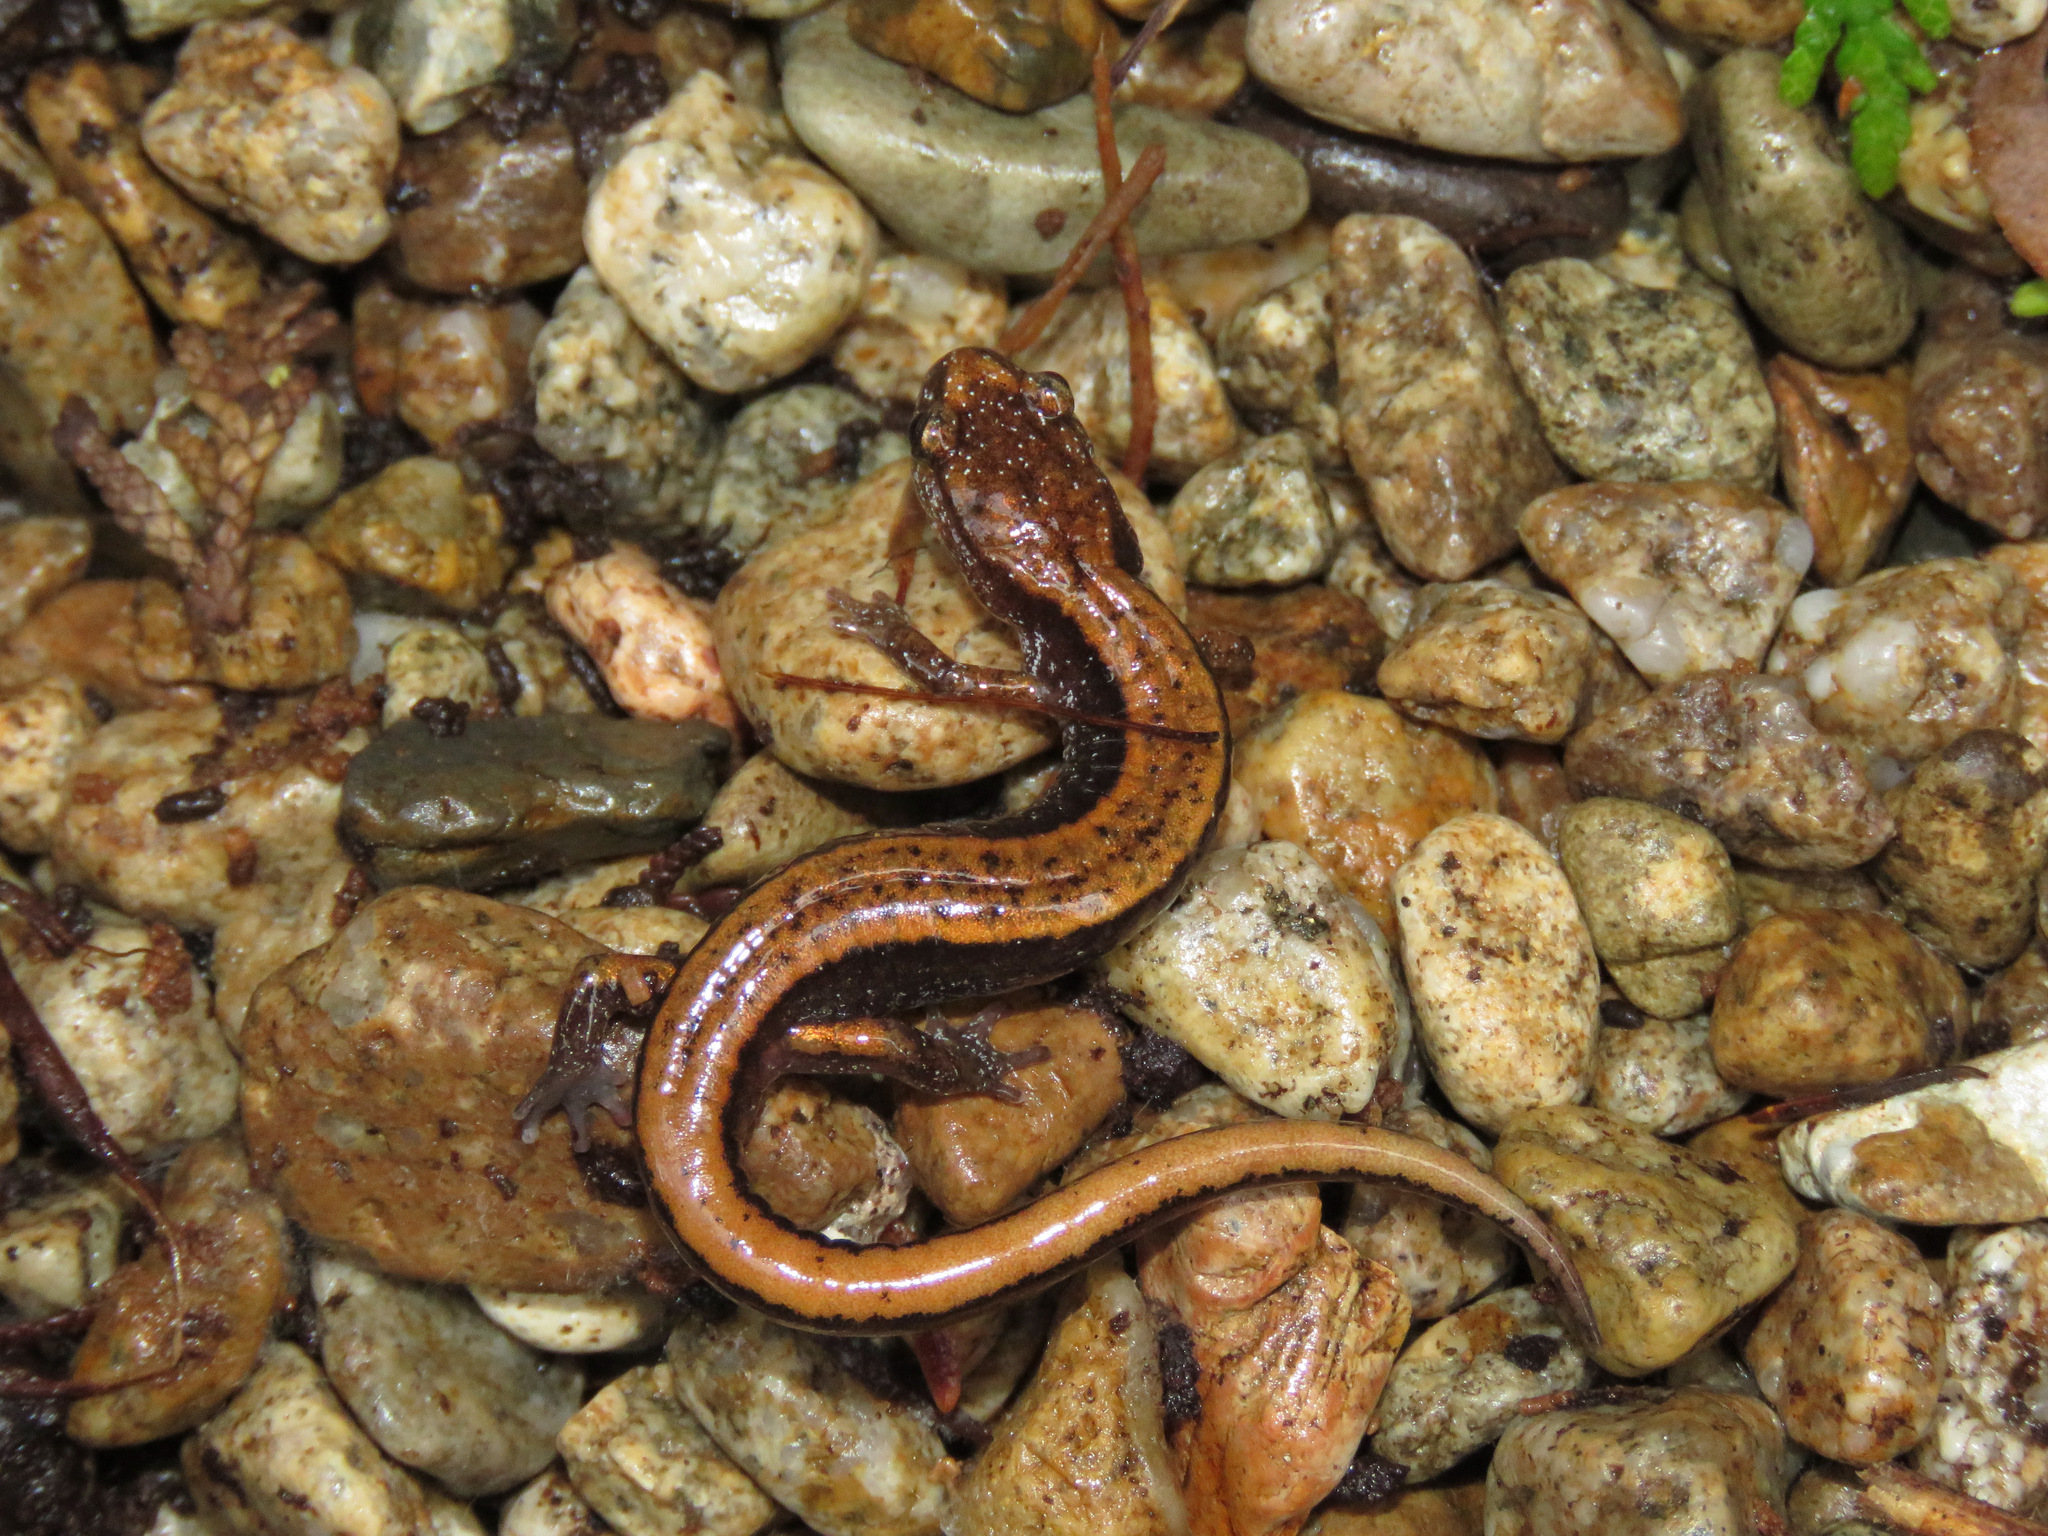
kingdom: Animalia
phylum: Chordata
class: Amphibia
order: Caudata
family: Plethodontidae
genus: Plethodon
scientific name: Plethodon vehiculum
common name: Western red-backed salamander
